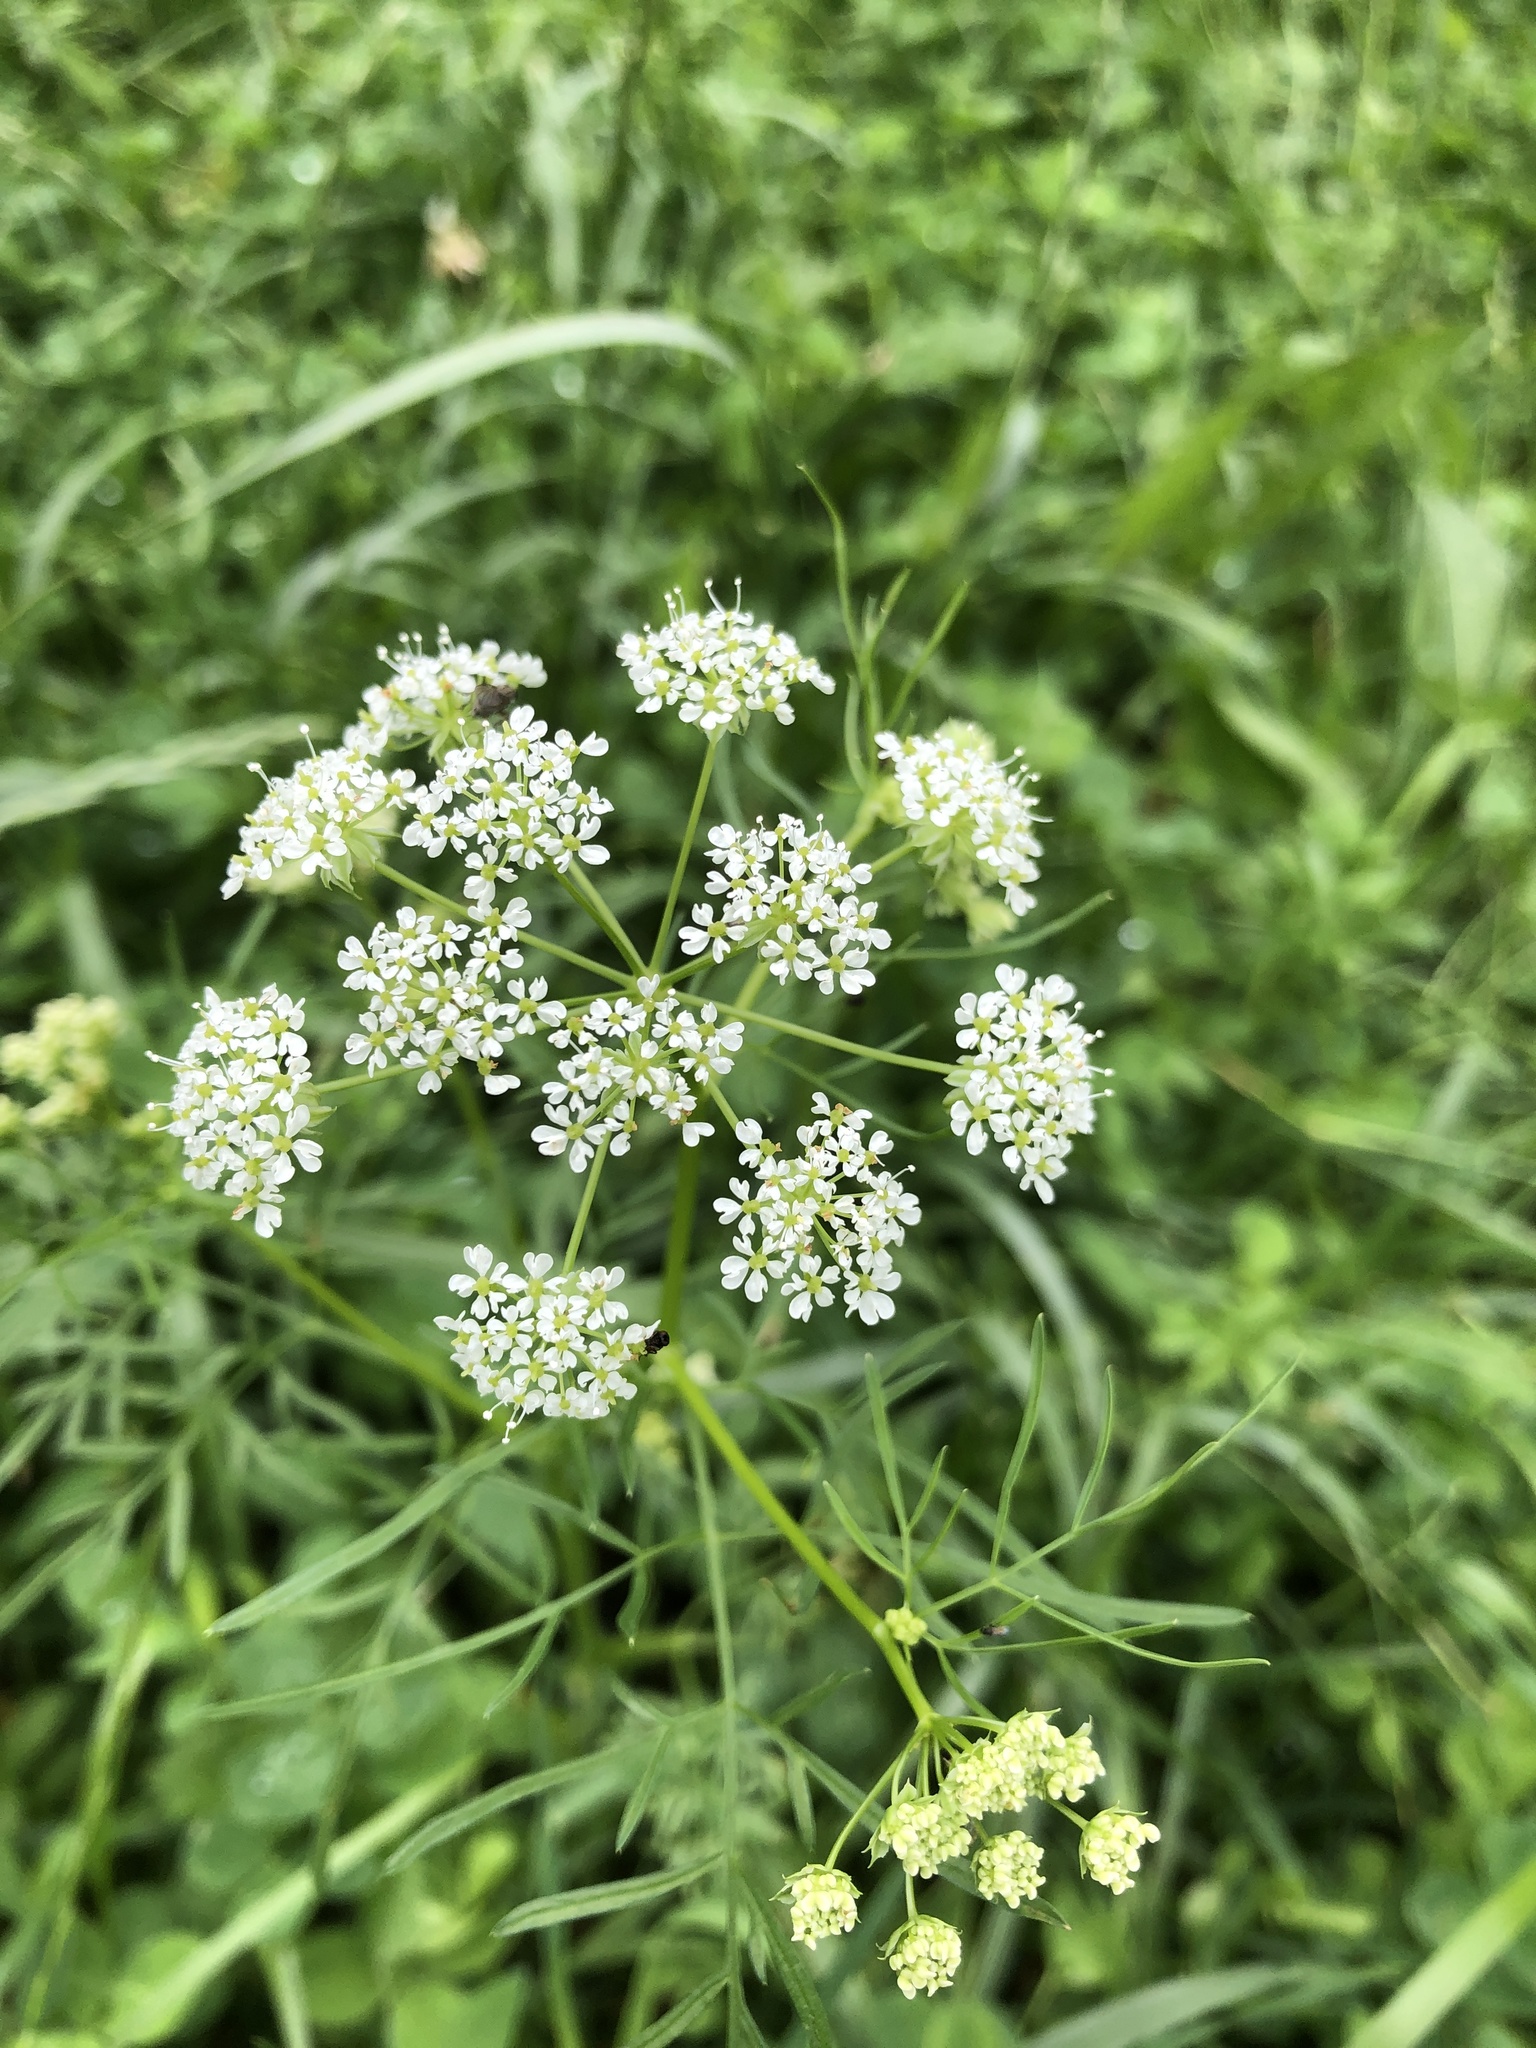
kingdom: Plantae
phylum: Tracheophyta
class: Magnoliopsida
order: Apiales
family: Apiaceae
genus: Chaerophyllum
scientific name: Chaerophyllum prescottii
